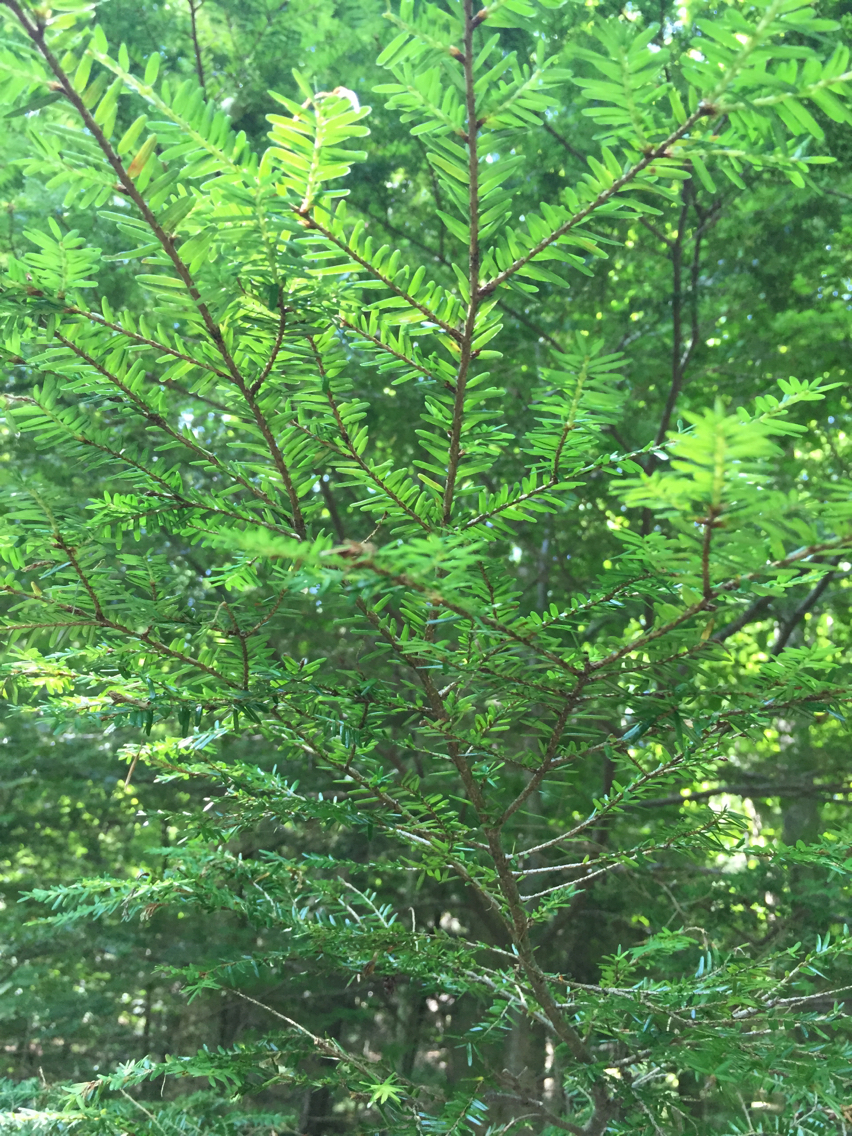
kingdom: Plantae
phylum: Tracheophyta
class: Pinopsida
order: Pinales
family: Pinaceae
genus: Tsuga
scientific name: Tsuga canadensis
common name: Eastern hemlock
